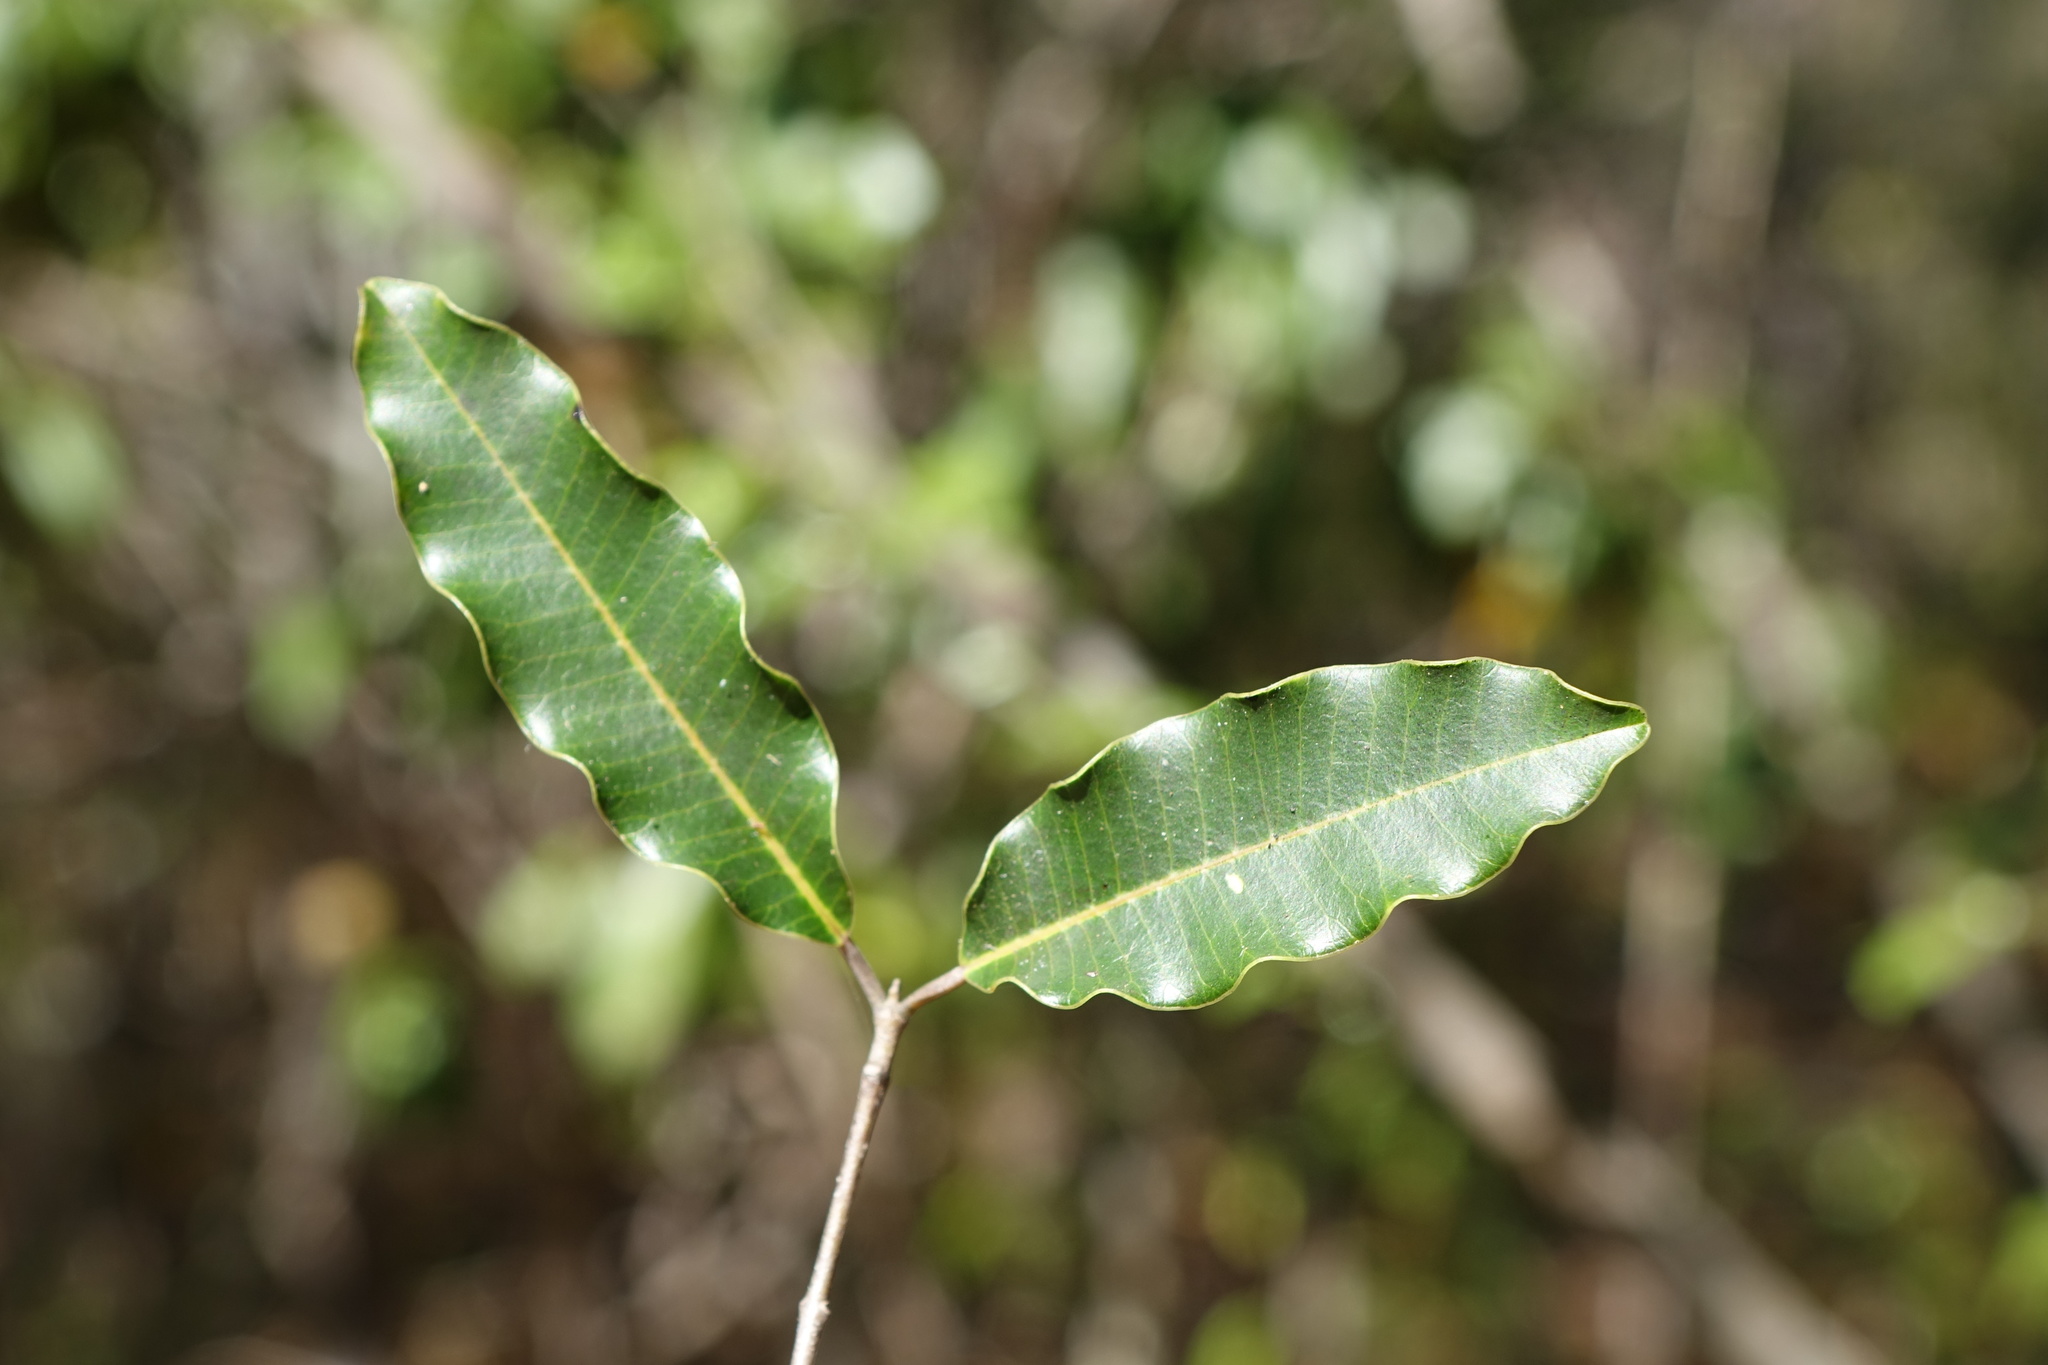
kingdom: Plantae
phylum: Tracheophyta
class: Magnoliopsida
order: Sapindales
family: Anacardiaceae
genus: Abrahamia
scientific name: Abrahamia deflexa
